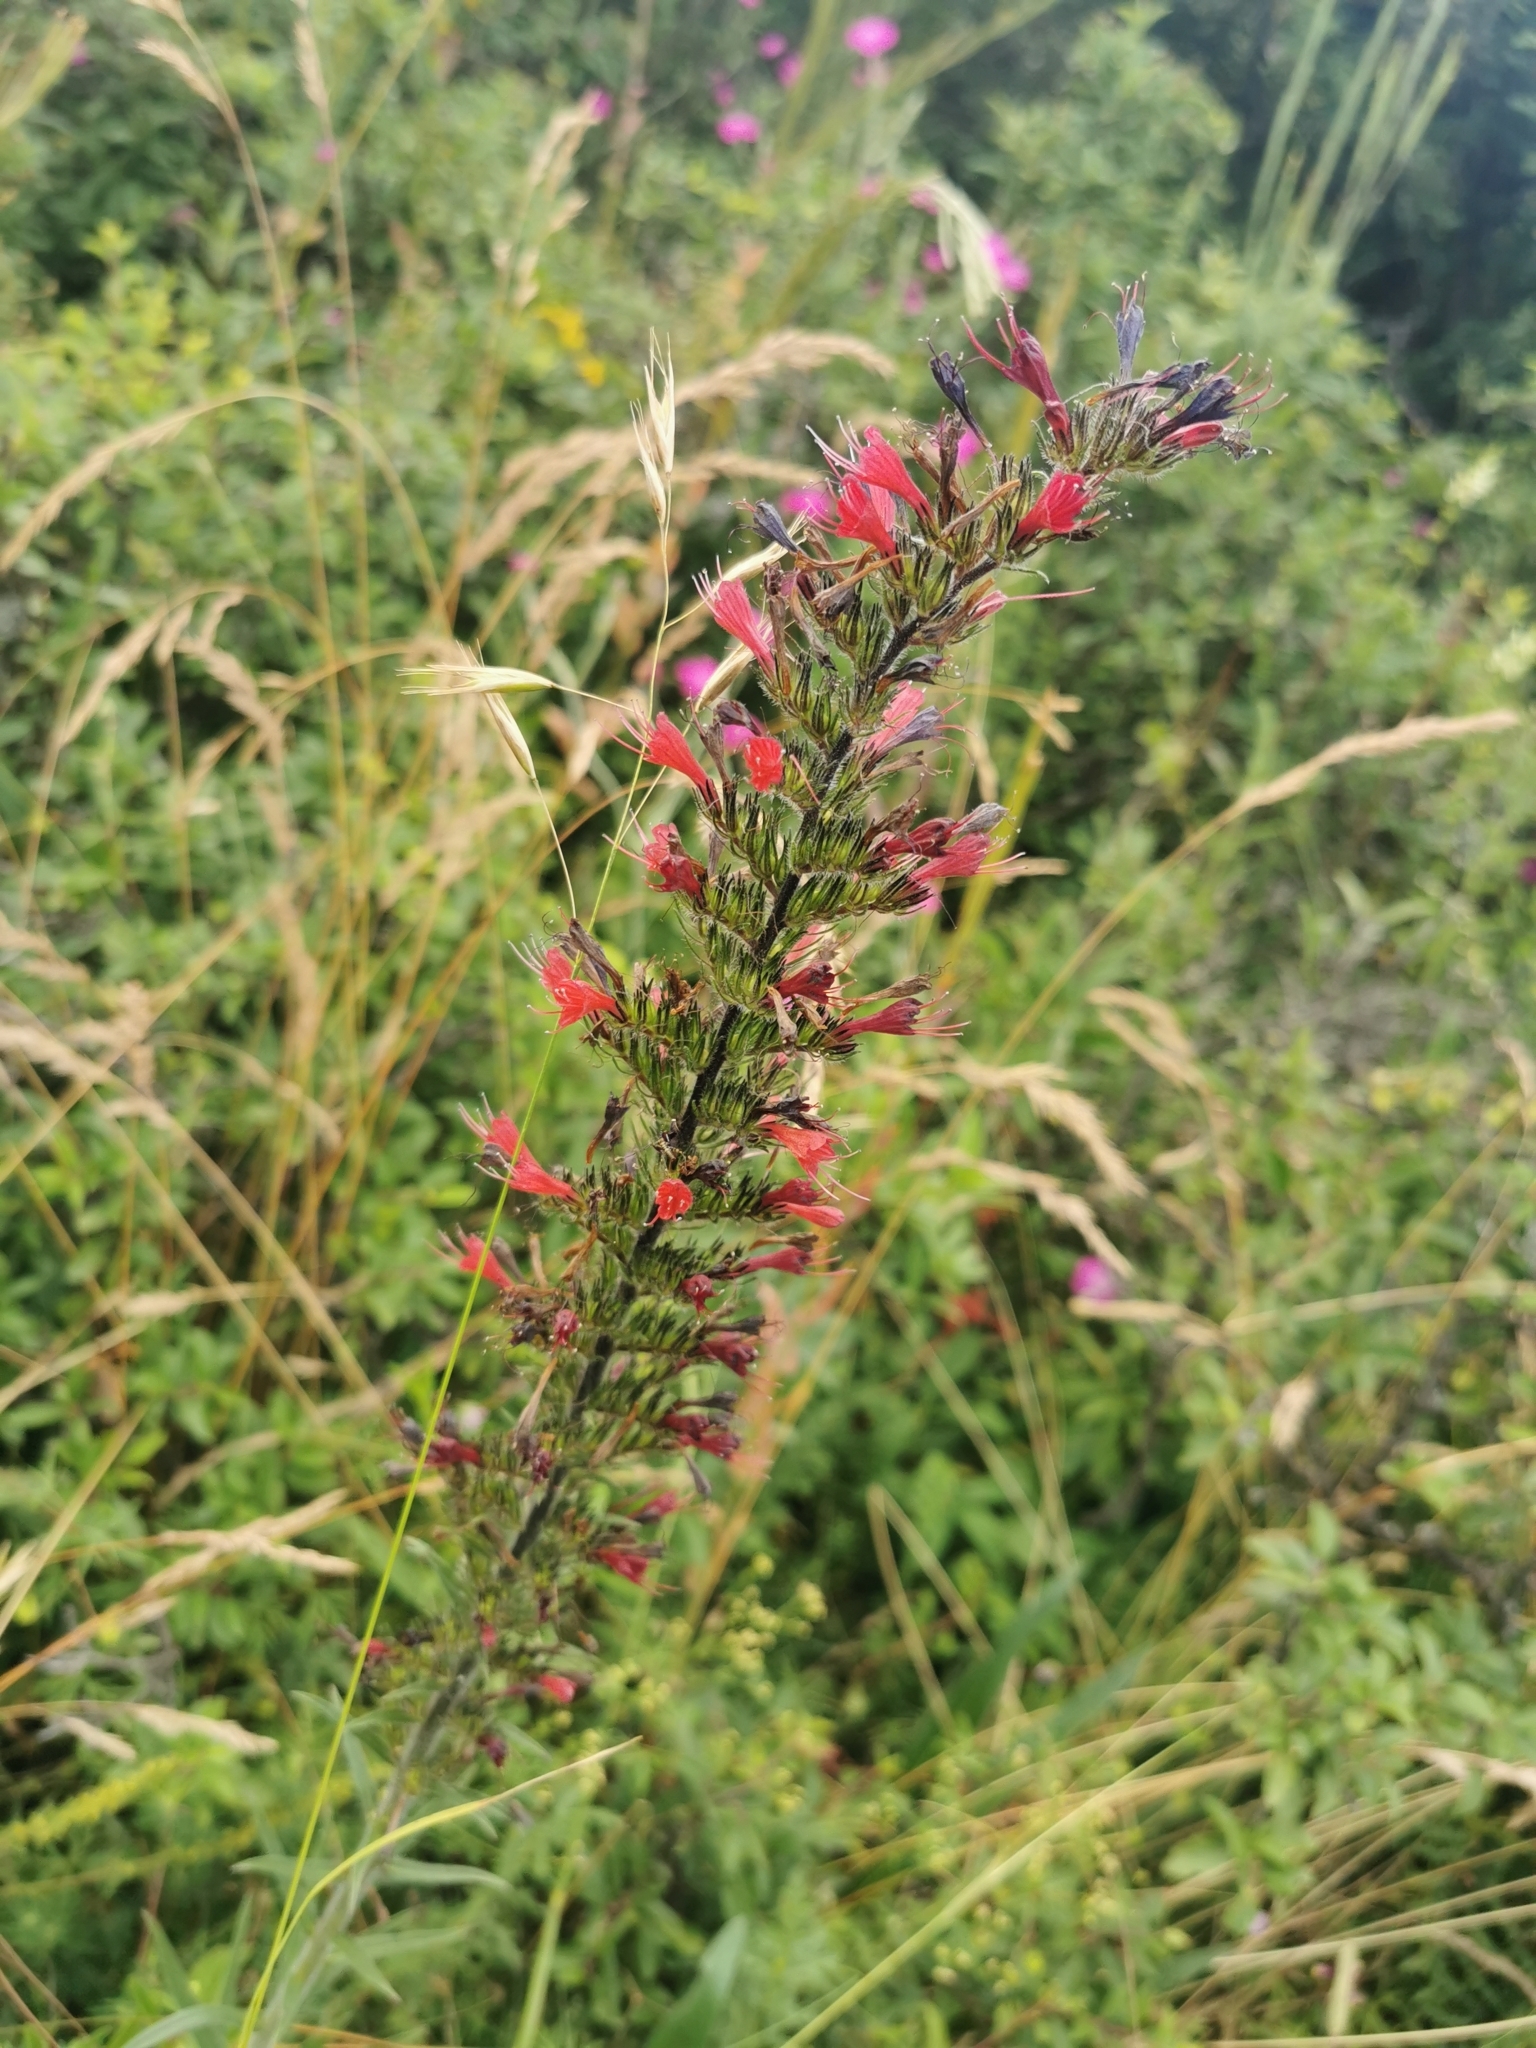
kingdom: Plantae
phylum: Tracheophyta
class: Magnoliopsida
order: Boraginales
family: Boraginaceae
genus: Pontechium
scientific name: Pontechium maculatum
